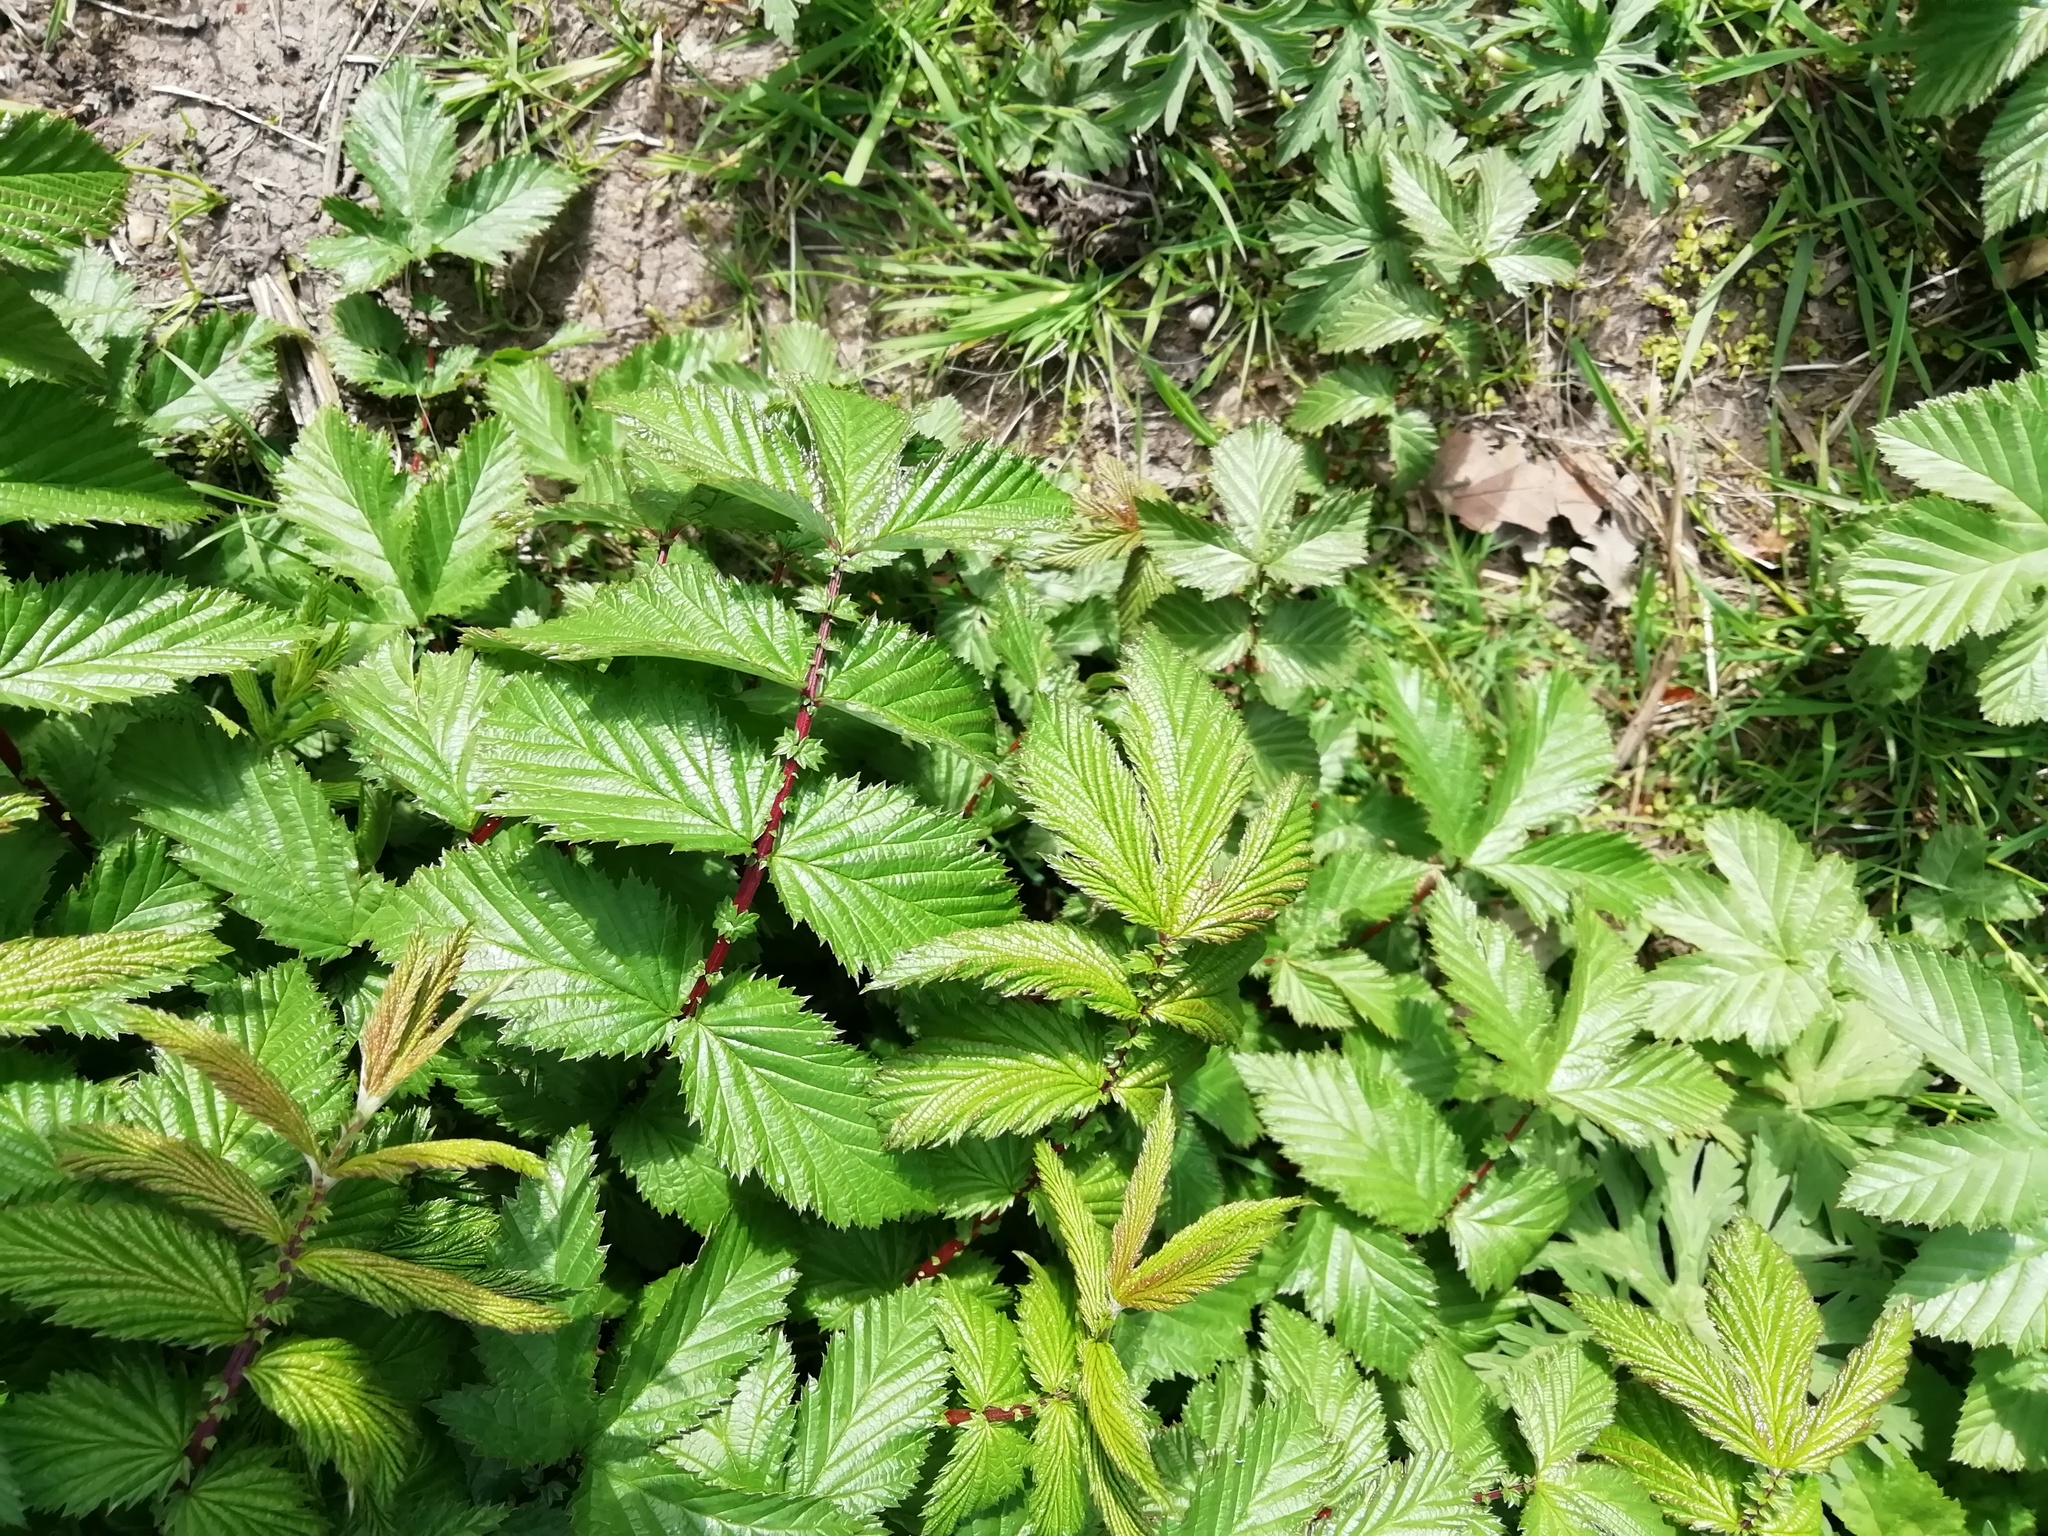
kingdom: Plantae
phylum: Tracheophyta
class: Magnoliopsida
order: Rosales
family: Rosaceae
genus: Filipendula
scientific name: Filipendula ulmaria
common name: Meadowsweet
